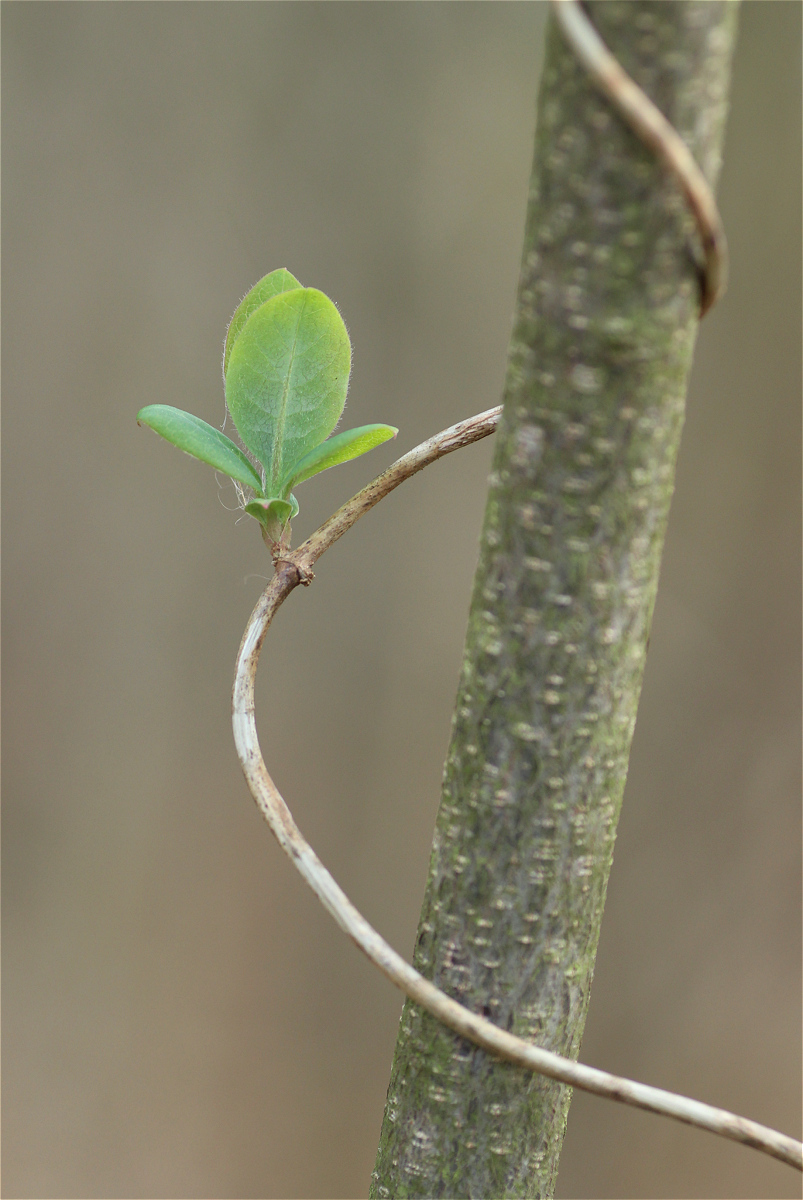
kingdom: Plantae
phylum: Tracheophyta
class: Magnoliopsida
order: Dipsacales
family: Caprifoliaceae
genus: Lonicera
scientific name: Lonicera periclymenum
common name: European honeysuckle
